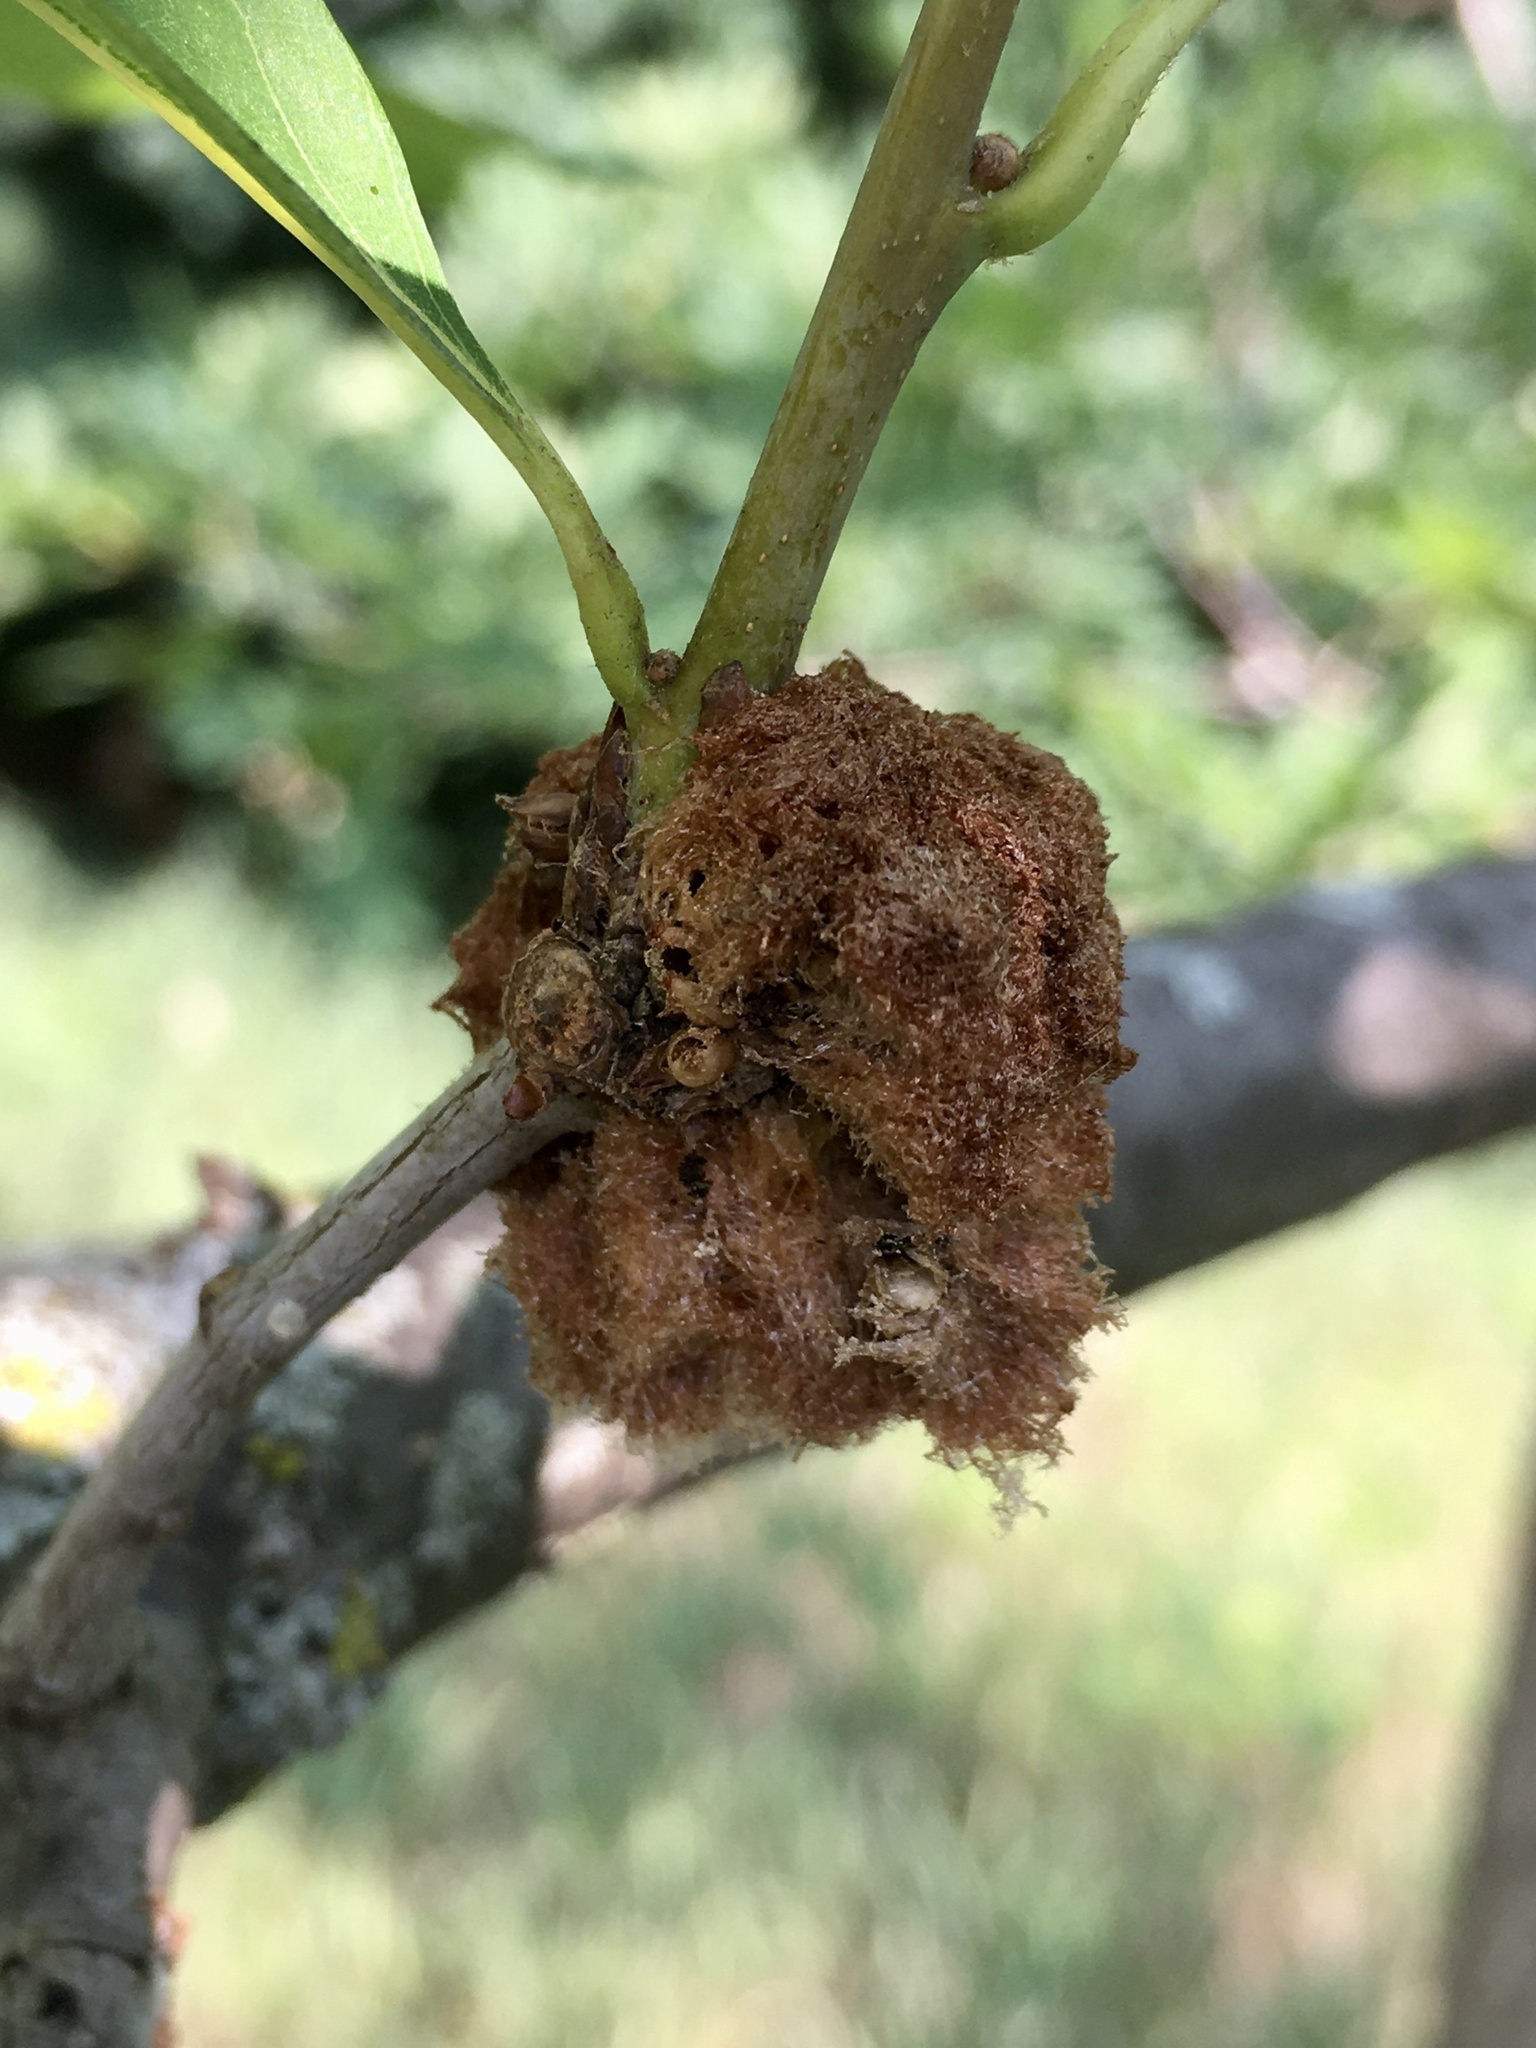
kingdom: Animalia
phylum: Arthropoda
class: Insecta
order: Hymenoptera
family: Cynipidae
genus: Callirhytis
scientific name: Callirhytis
